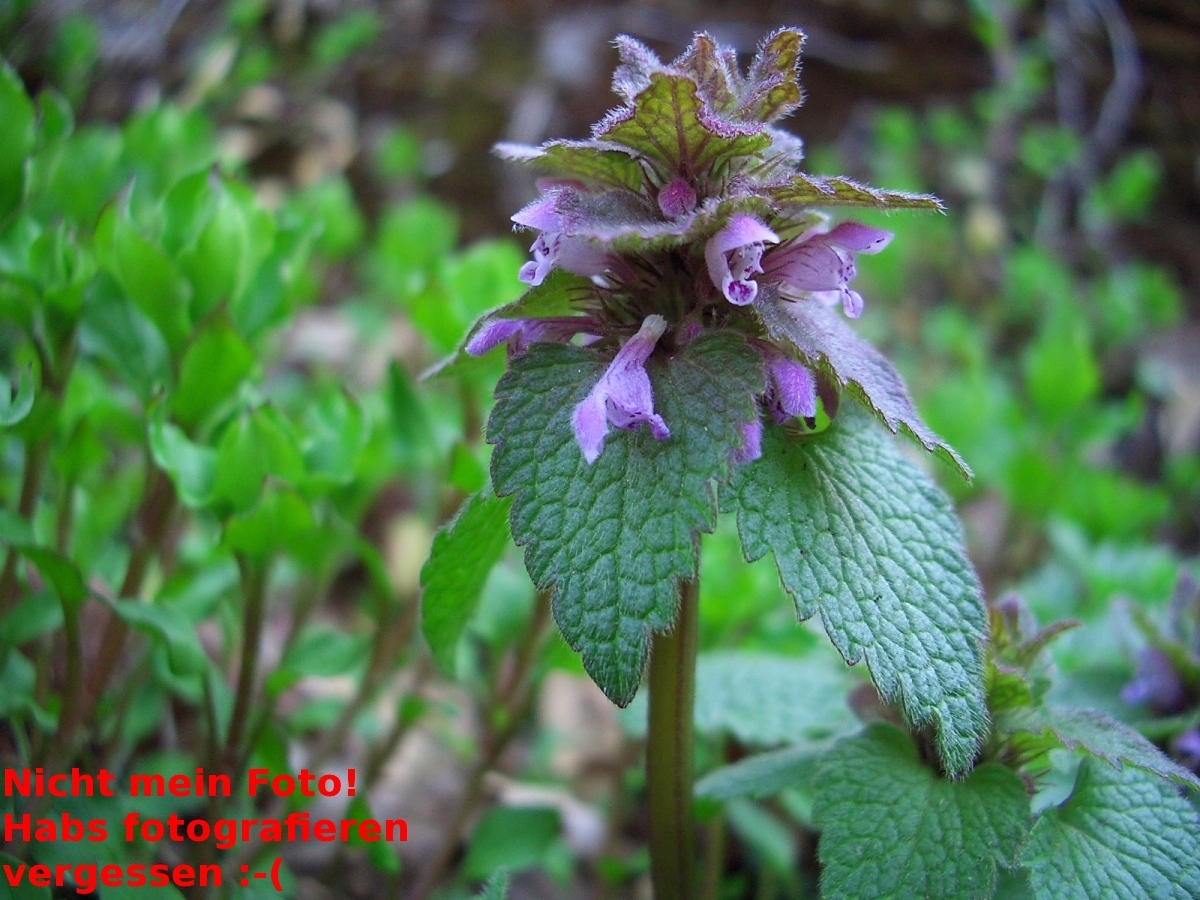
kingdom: Plantae
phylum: Tracheophyta
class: Magnoliopsida
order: Lamiales
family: Lamiaceae
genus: Lamium
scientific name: Lamium purpureum
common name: Red dead-nettle
